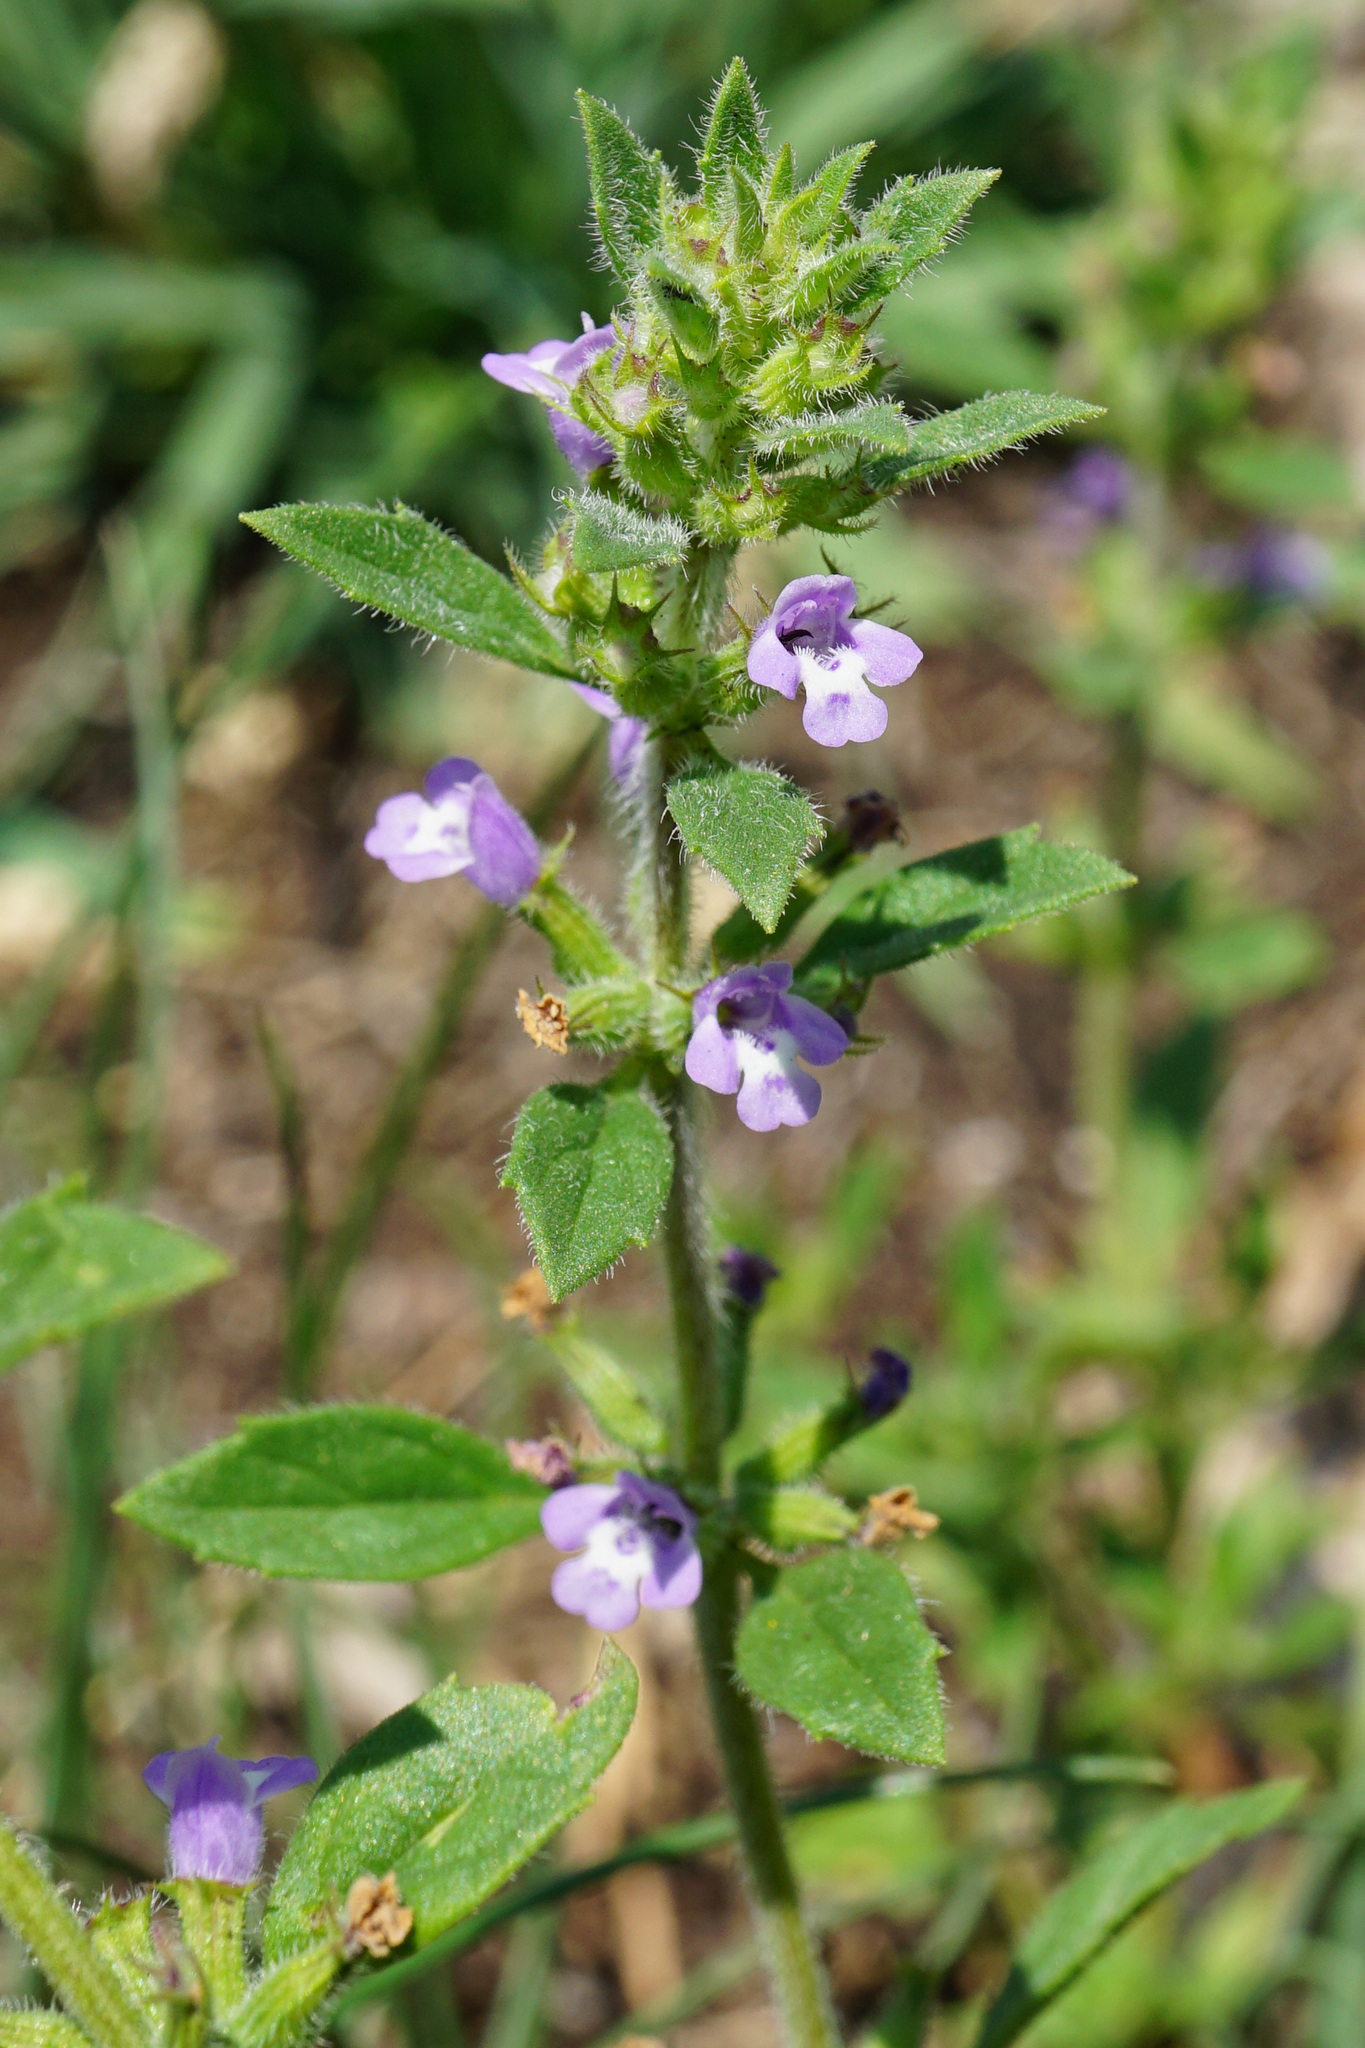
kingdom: Plantae
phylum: Tracheophyta
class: Magnoliopsida
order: Lamiales
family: Lamiaceae
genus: Clinopodium
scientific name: Clinopodium acinos
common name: Basil thyme
